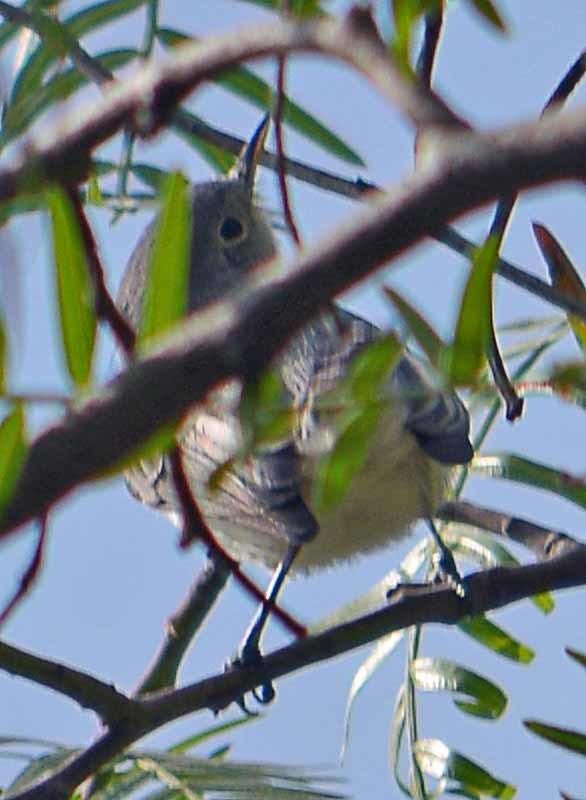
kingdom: Animalia
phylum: Chordata
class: Aves
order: Passeriformes
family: Polioptilidae
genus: Polioptila
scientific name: Polioptila caerulea
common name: Blue-gray gnatcatcher
